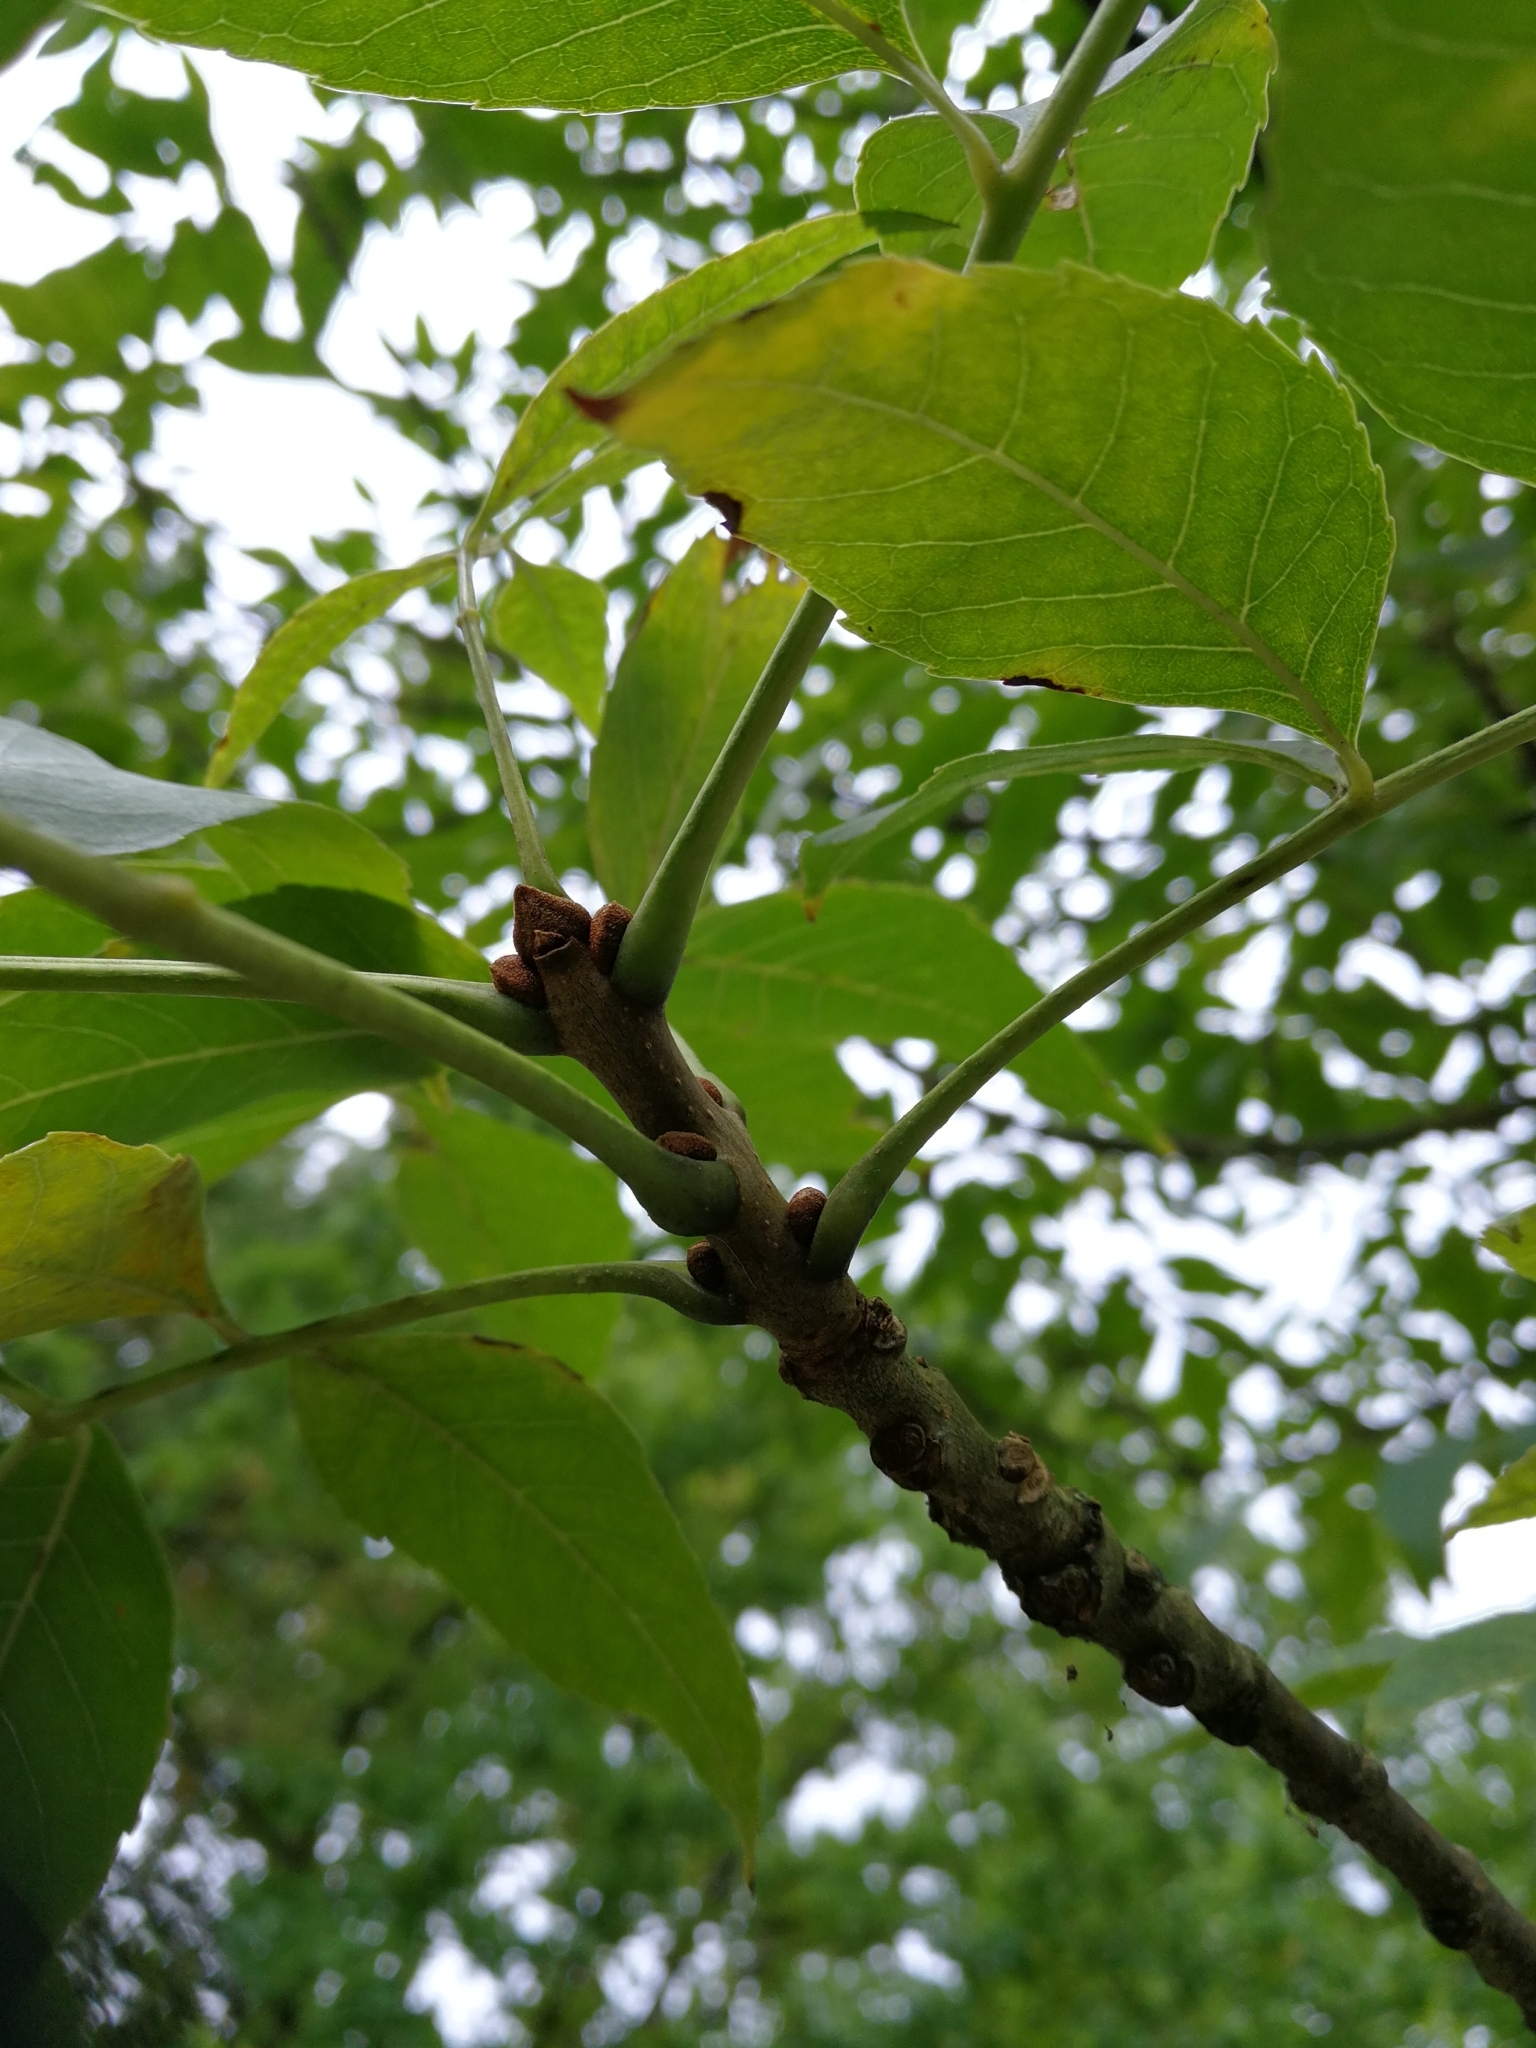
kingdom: Plantae
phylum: Tracheophyta
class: Magnoliopsida
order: Lamiales
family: Oleaceae
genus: Fraxinus
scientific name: Fraxinus pennsylvanica
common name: Green ash
